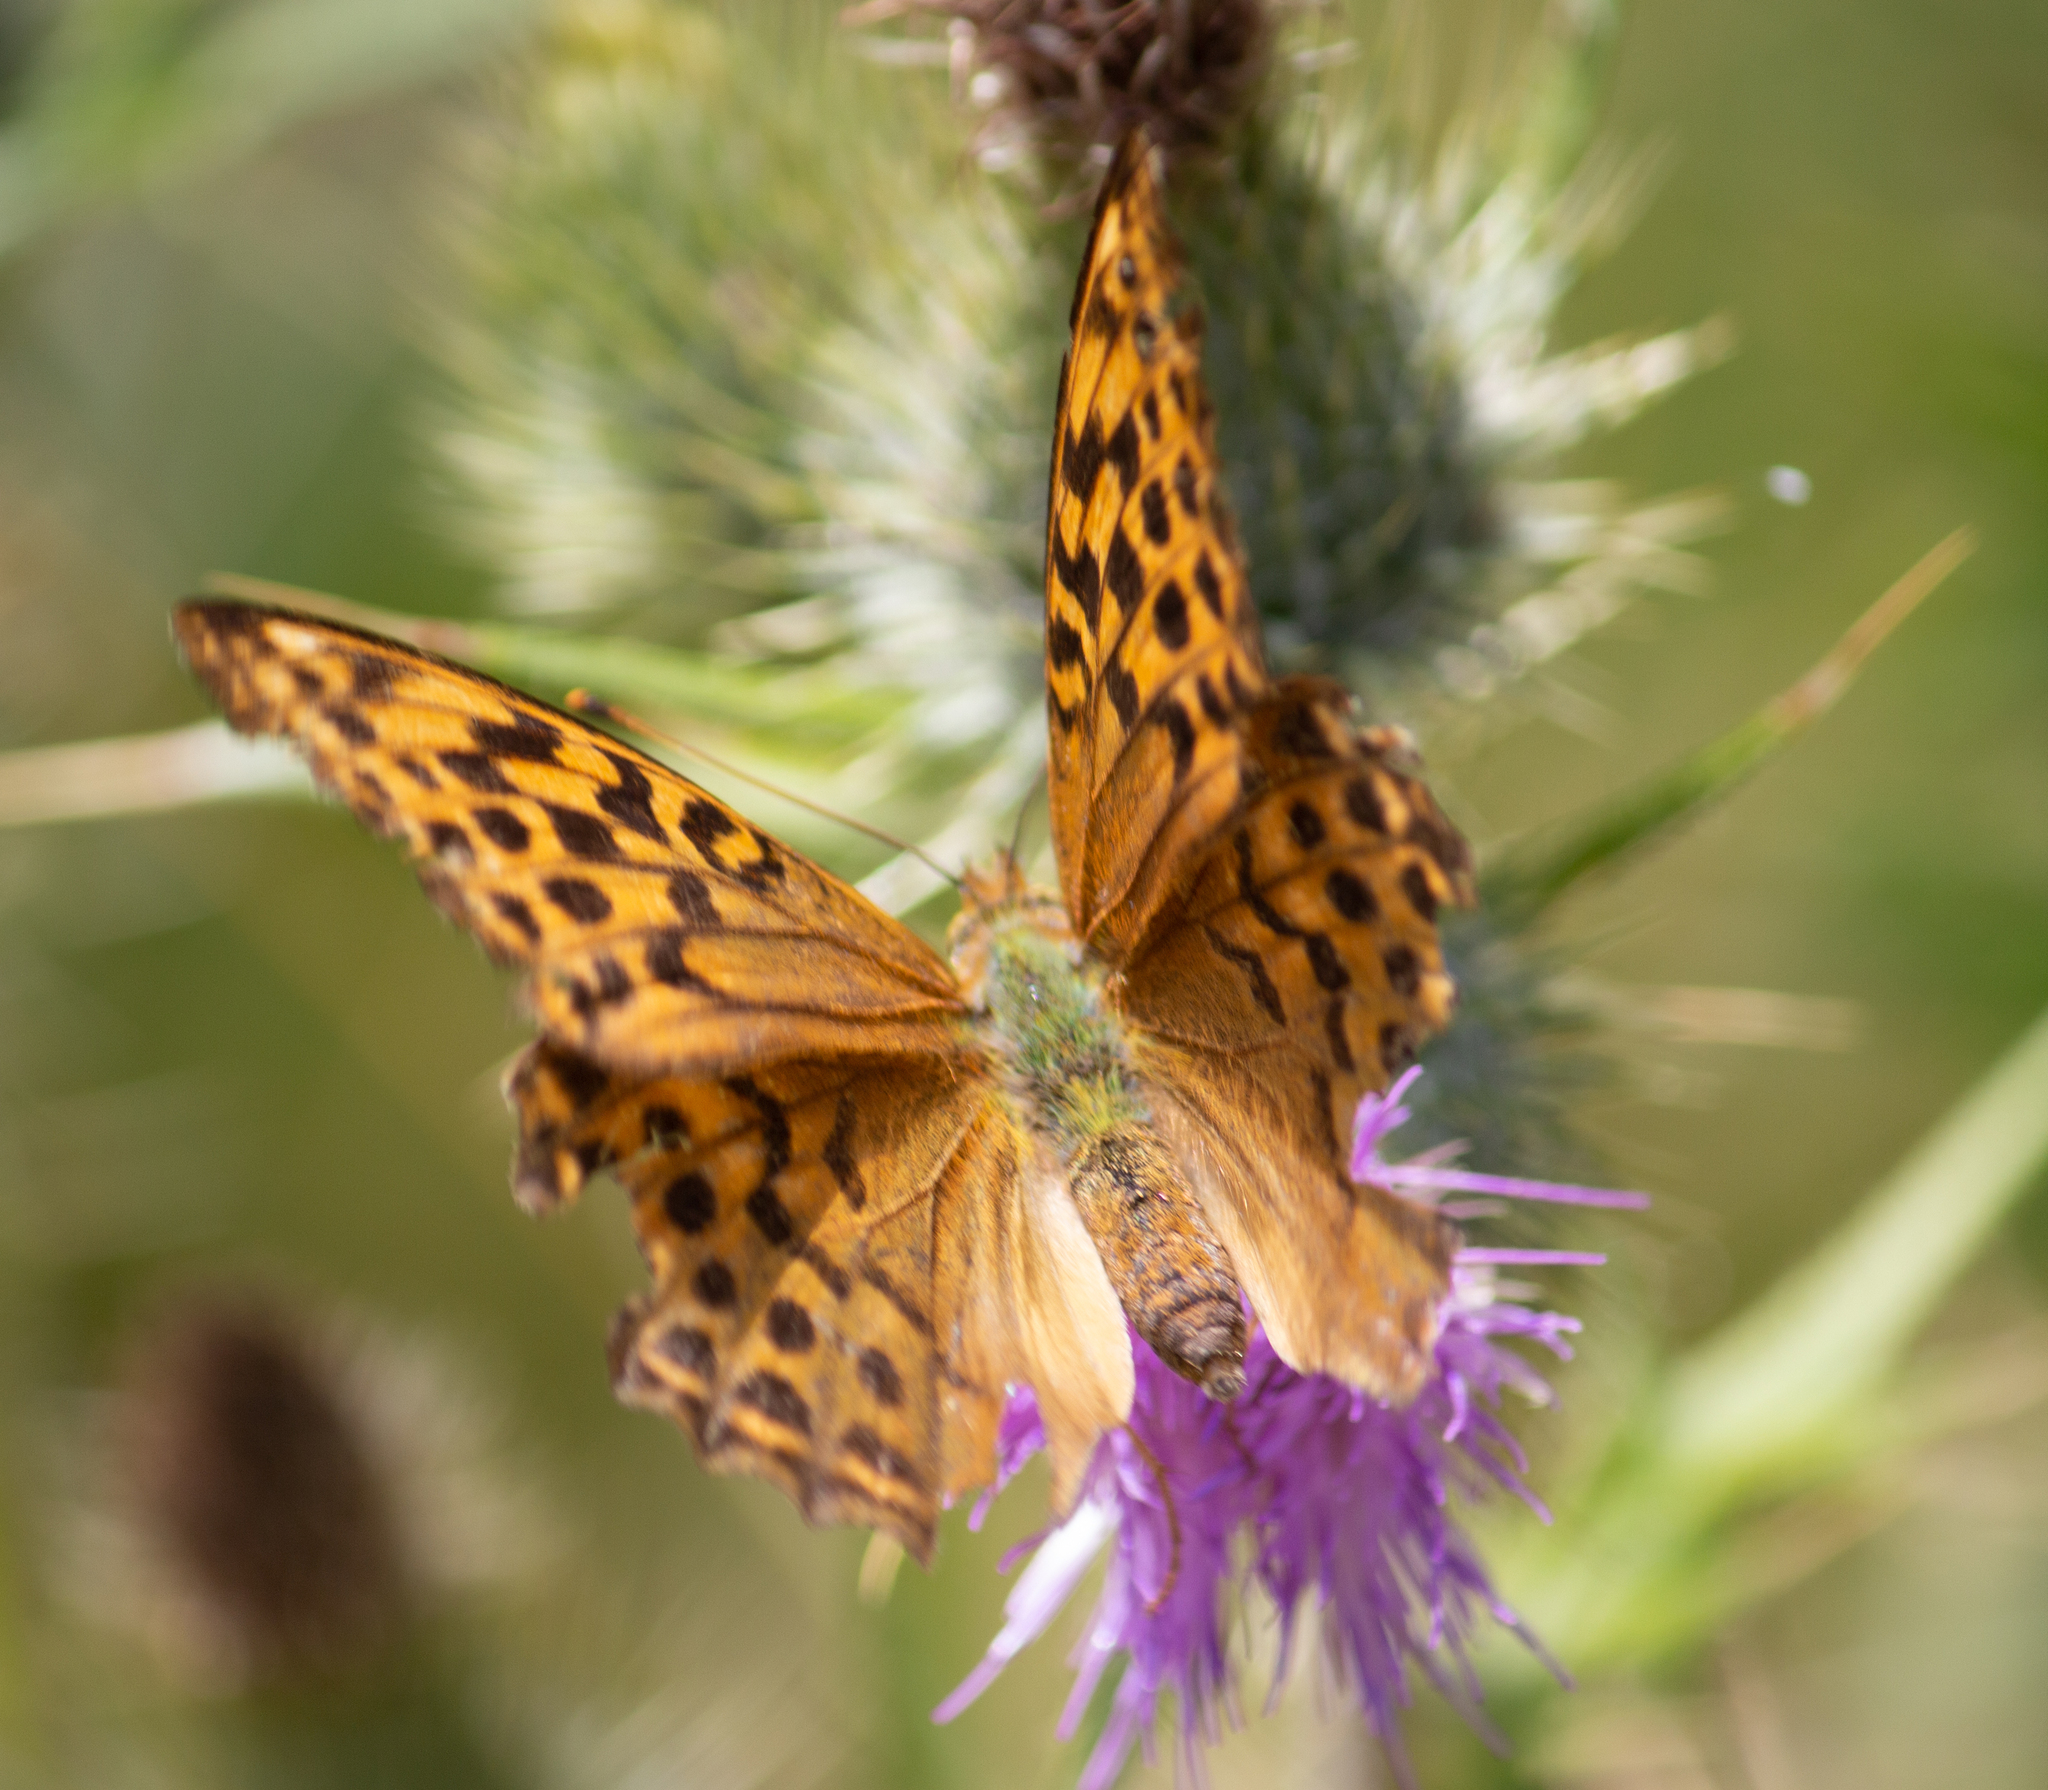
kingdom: Animalia
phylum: Arthropoda
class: Insecta
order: Lepidoptera
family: Nymphalidae
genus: Argynnis
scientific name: Argynnis paphia
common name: Silver-washed fritillary
